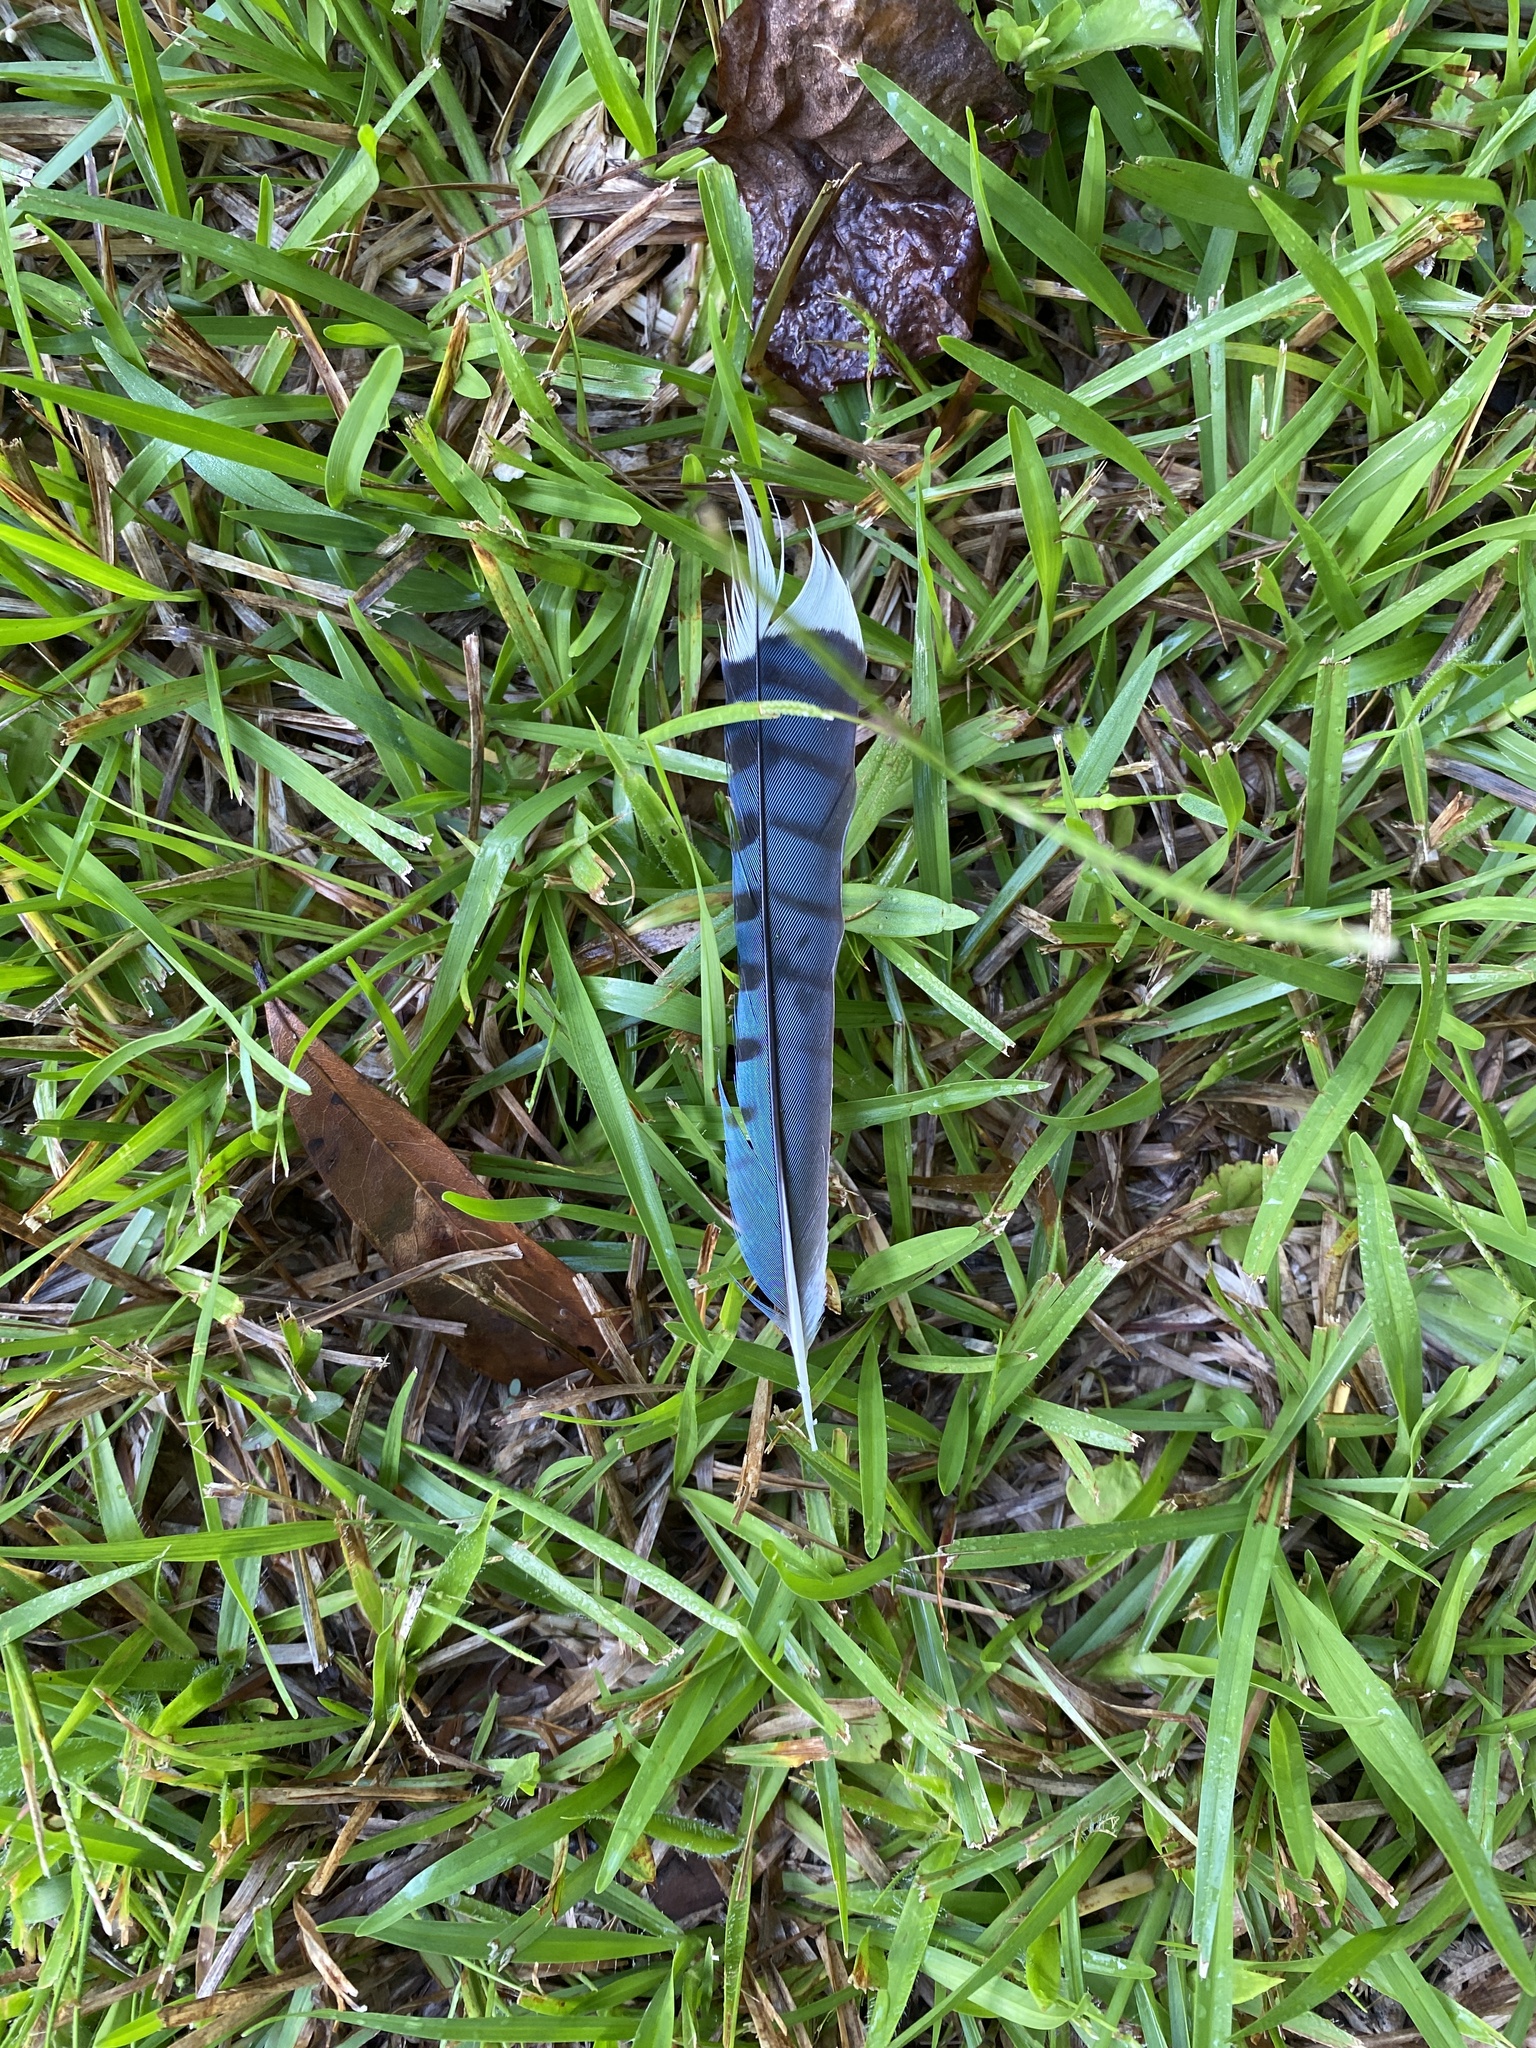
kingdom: Animalia
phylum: Chordata
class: Aves
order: Passeriformes
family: Corvidae
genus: Cyanocitta
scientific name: Cyanocitta cristata
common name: Blue jay
